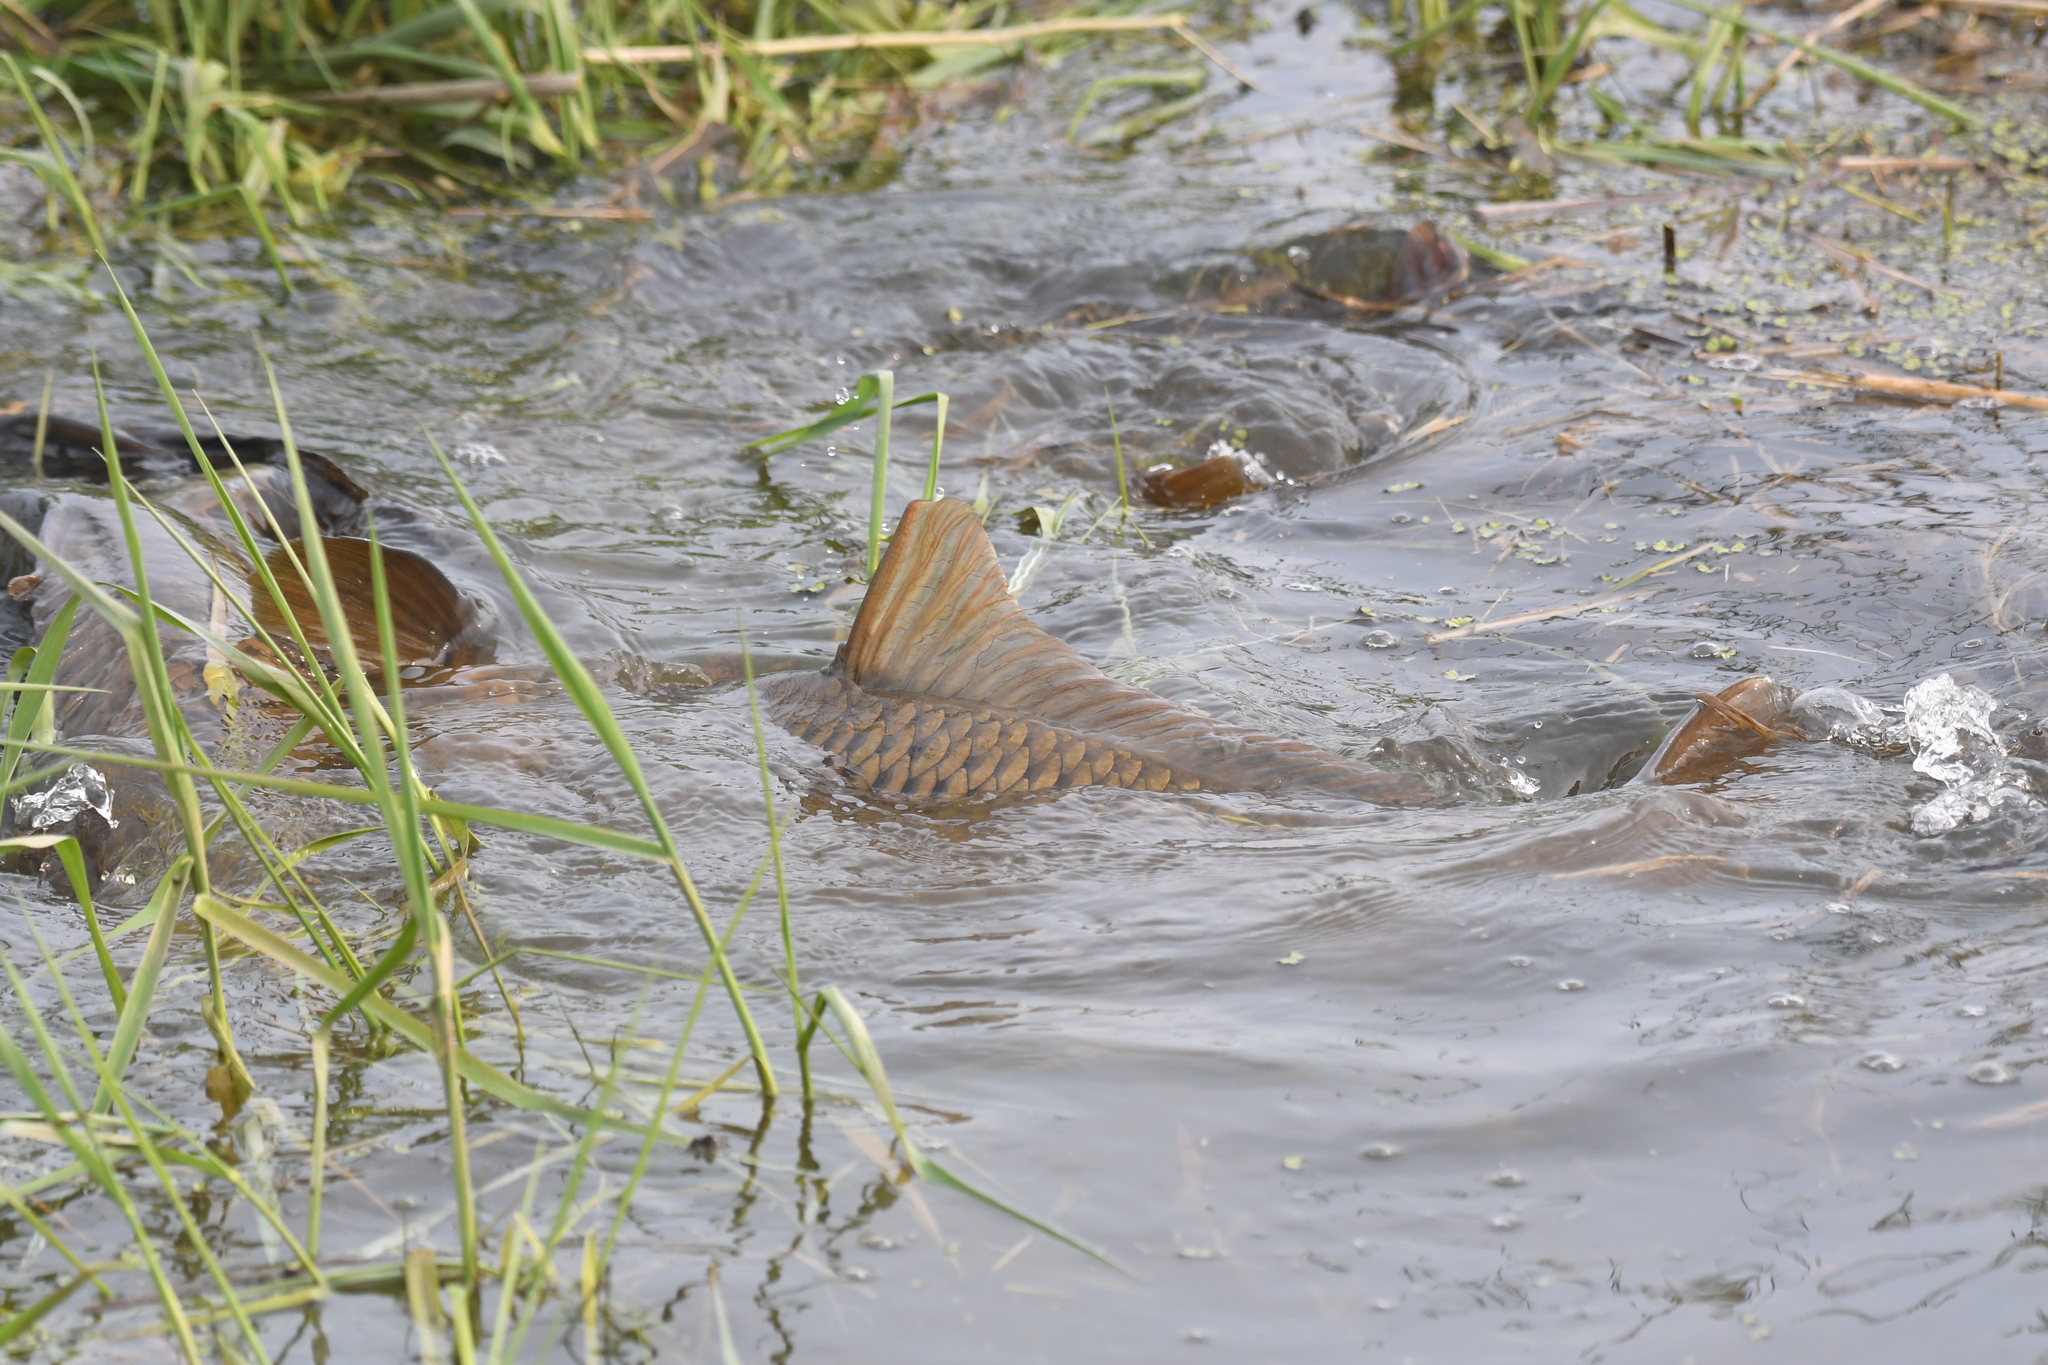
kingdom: Animalia
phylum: Chordata
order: Cypriniformes
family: Cyprinidae
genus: Cyprinus
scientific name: Cyprinus carpio
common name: Common carp
